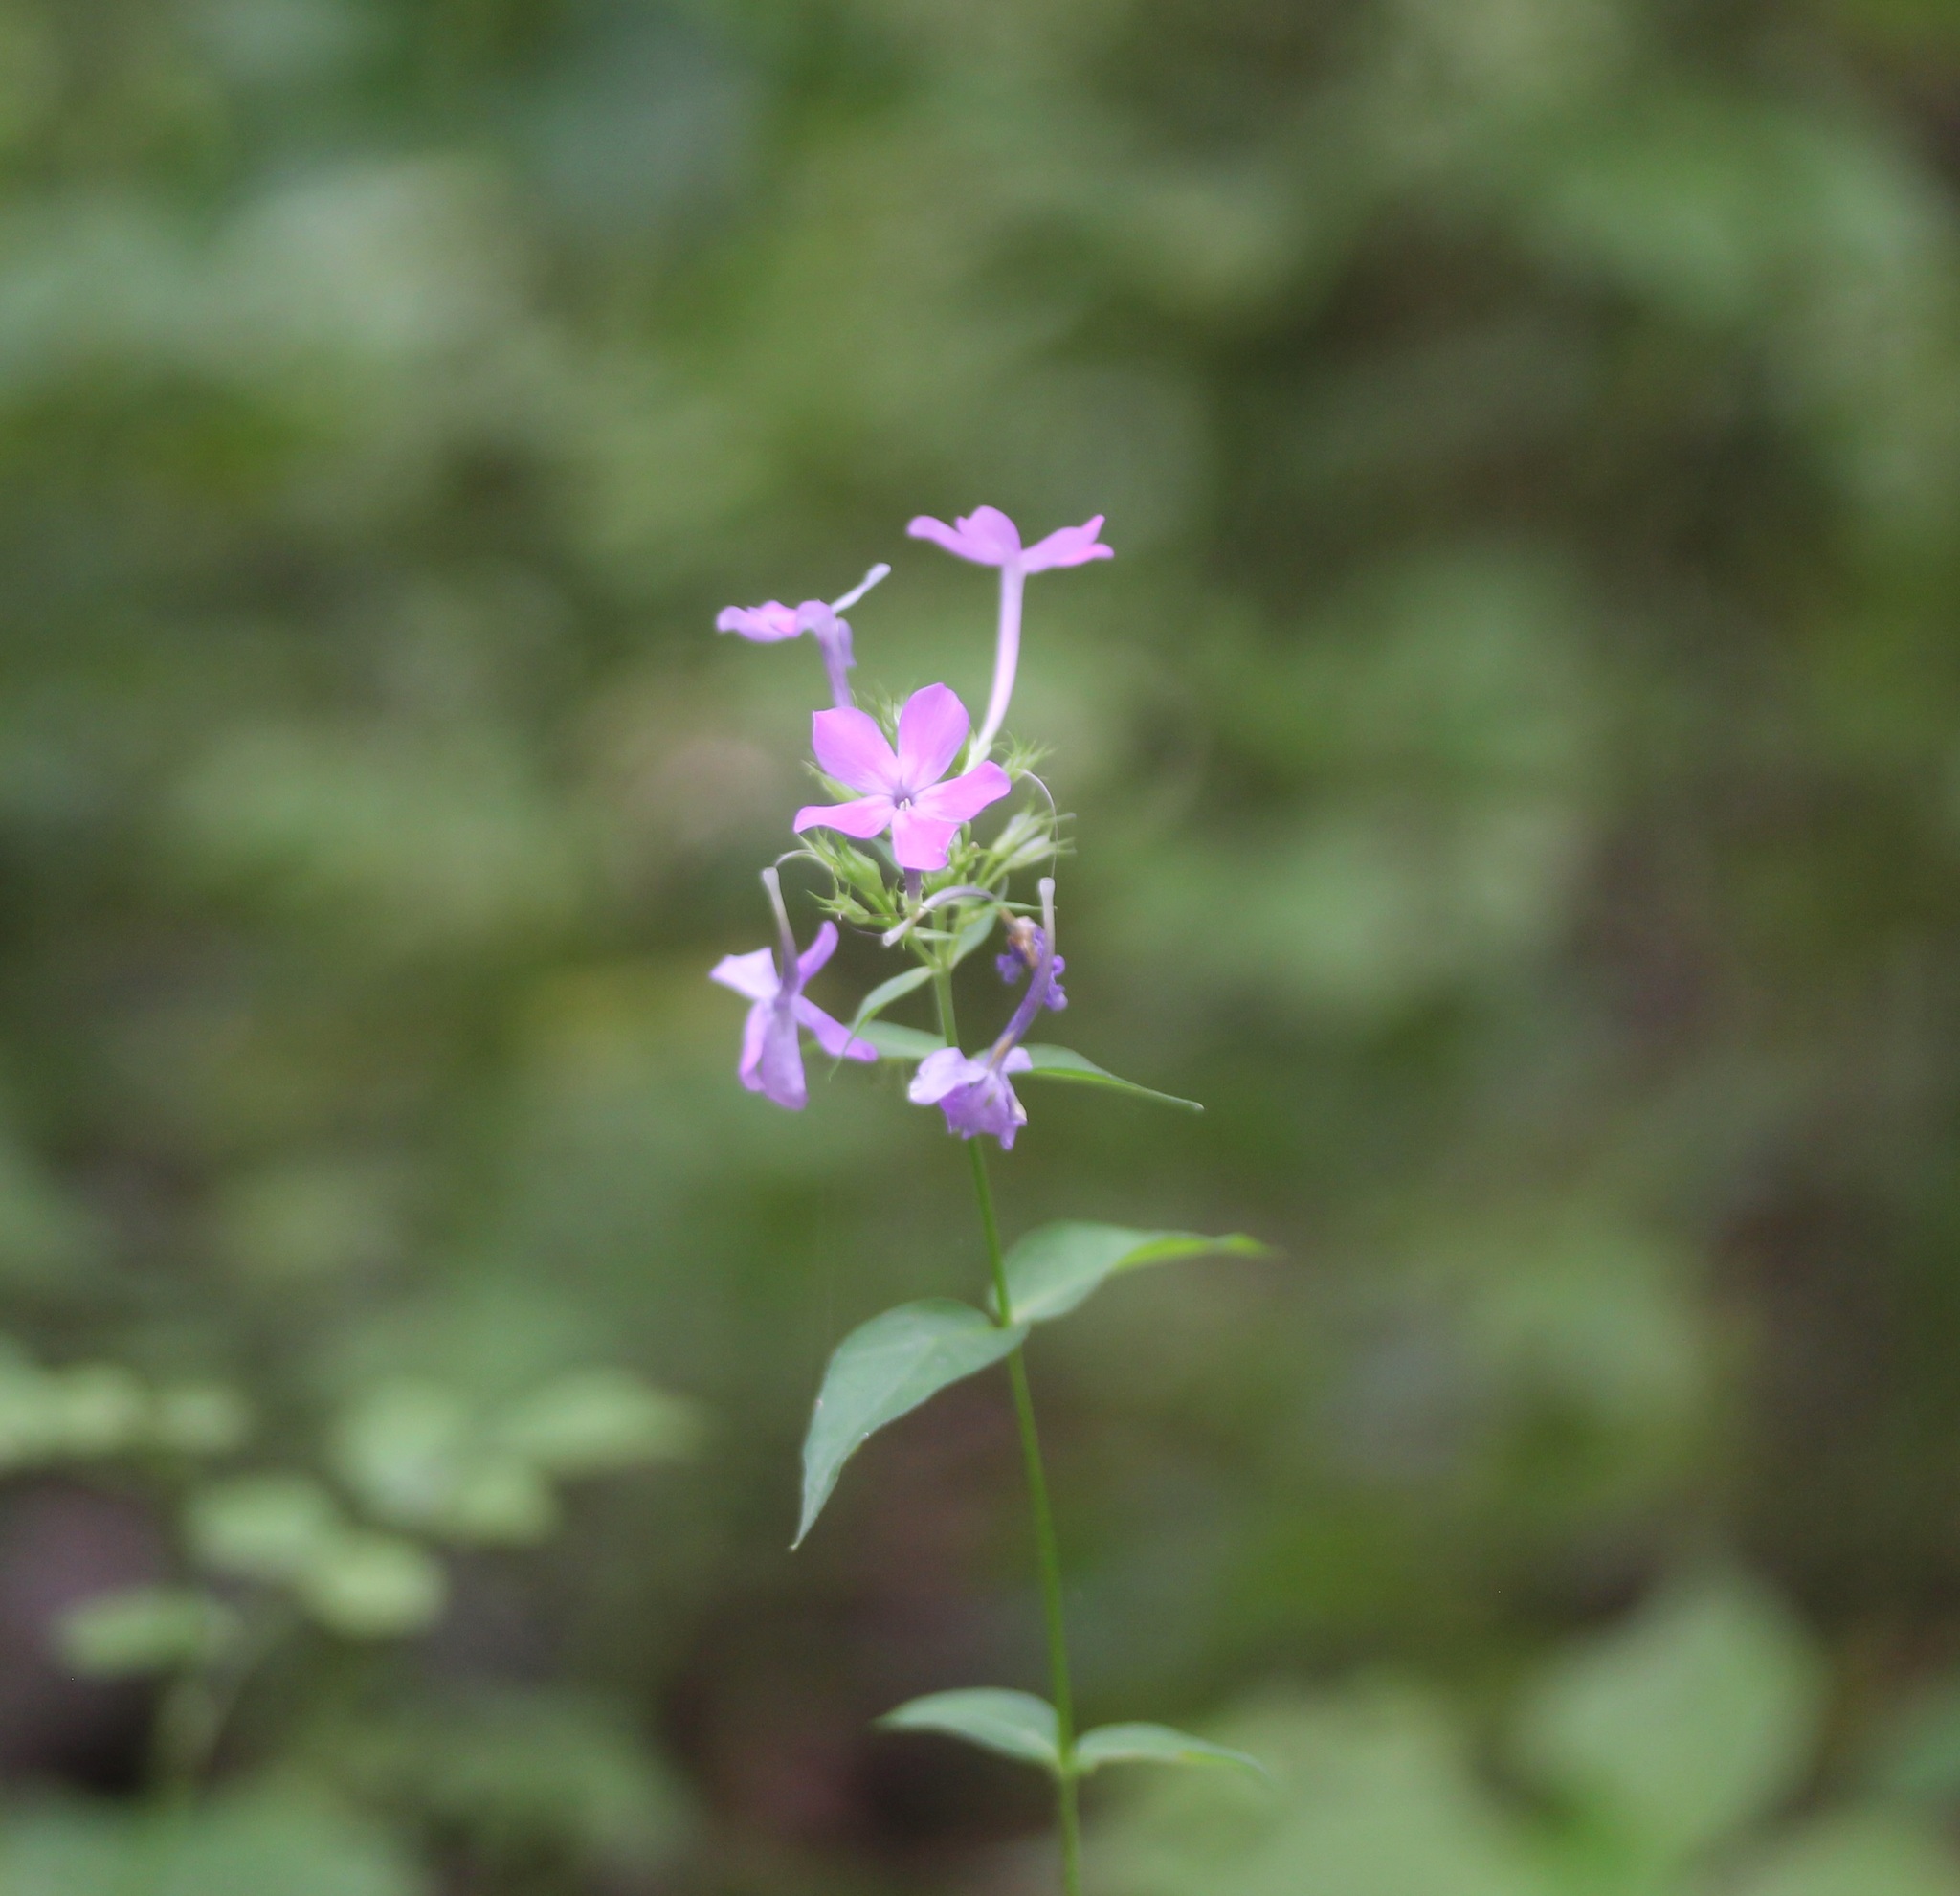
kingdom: Plantae
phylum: Tracheophyta
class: Magnoliopsida
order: Ericales
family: Polemoniaceae
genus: Phlox
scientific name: Phlox paniculata
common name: Fall phlox
